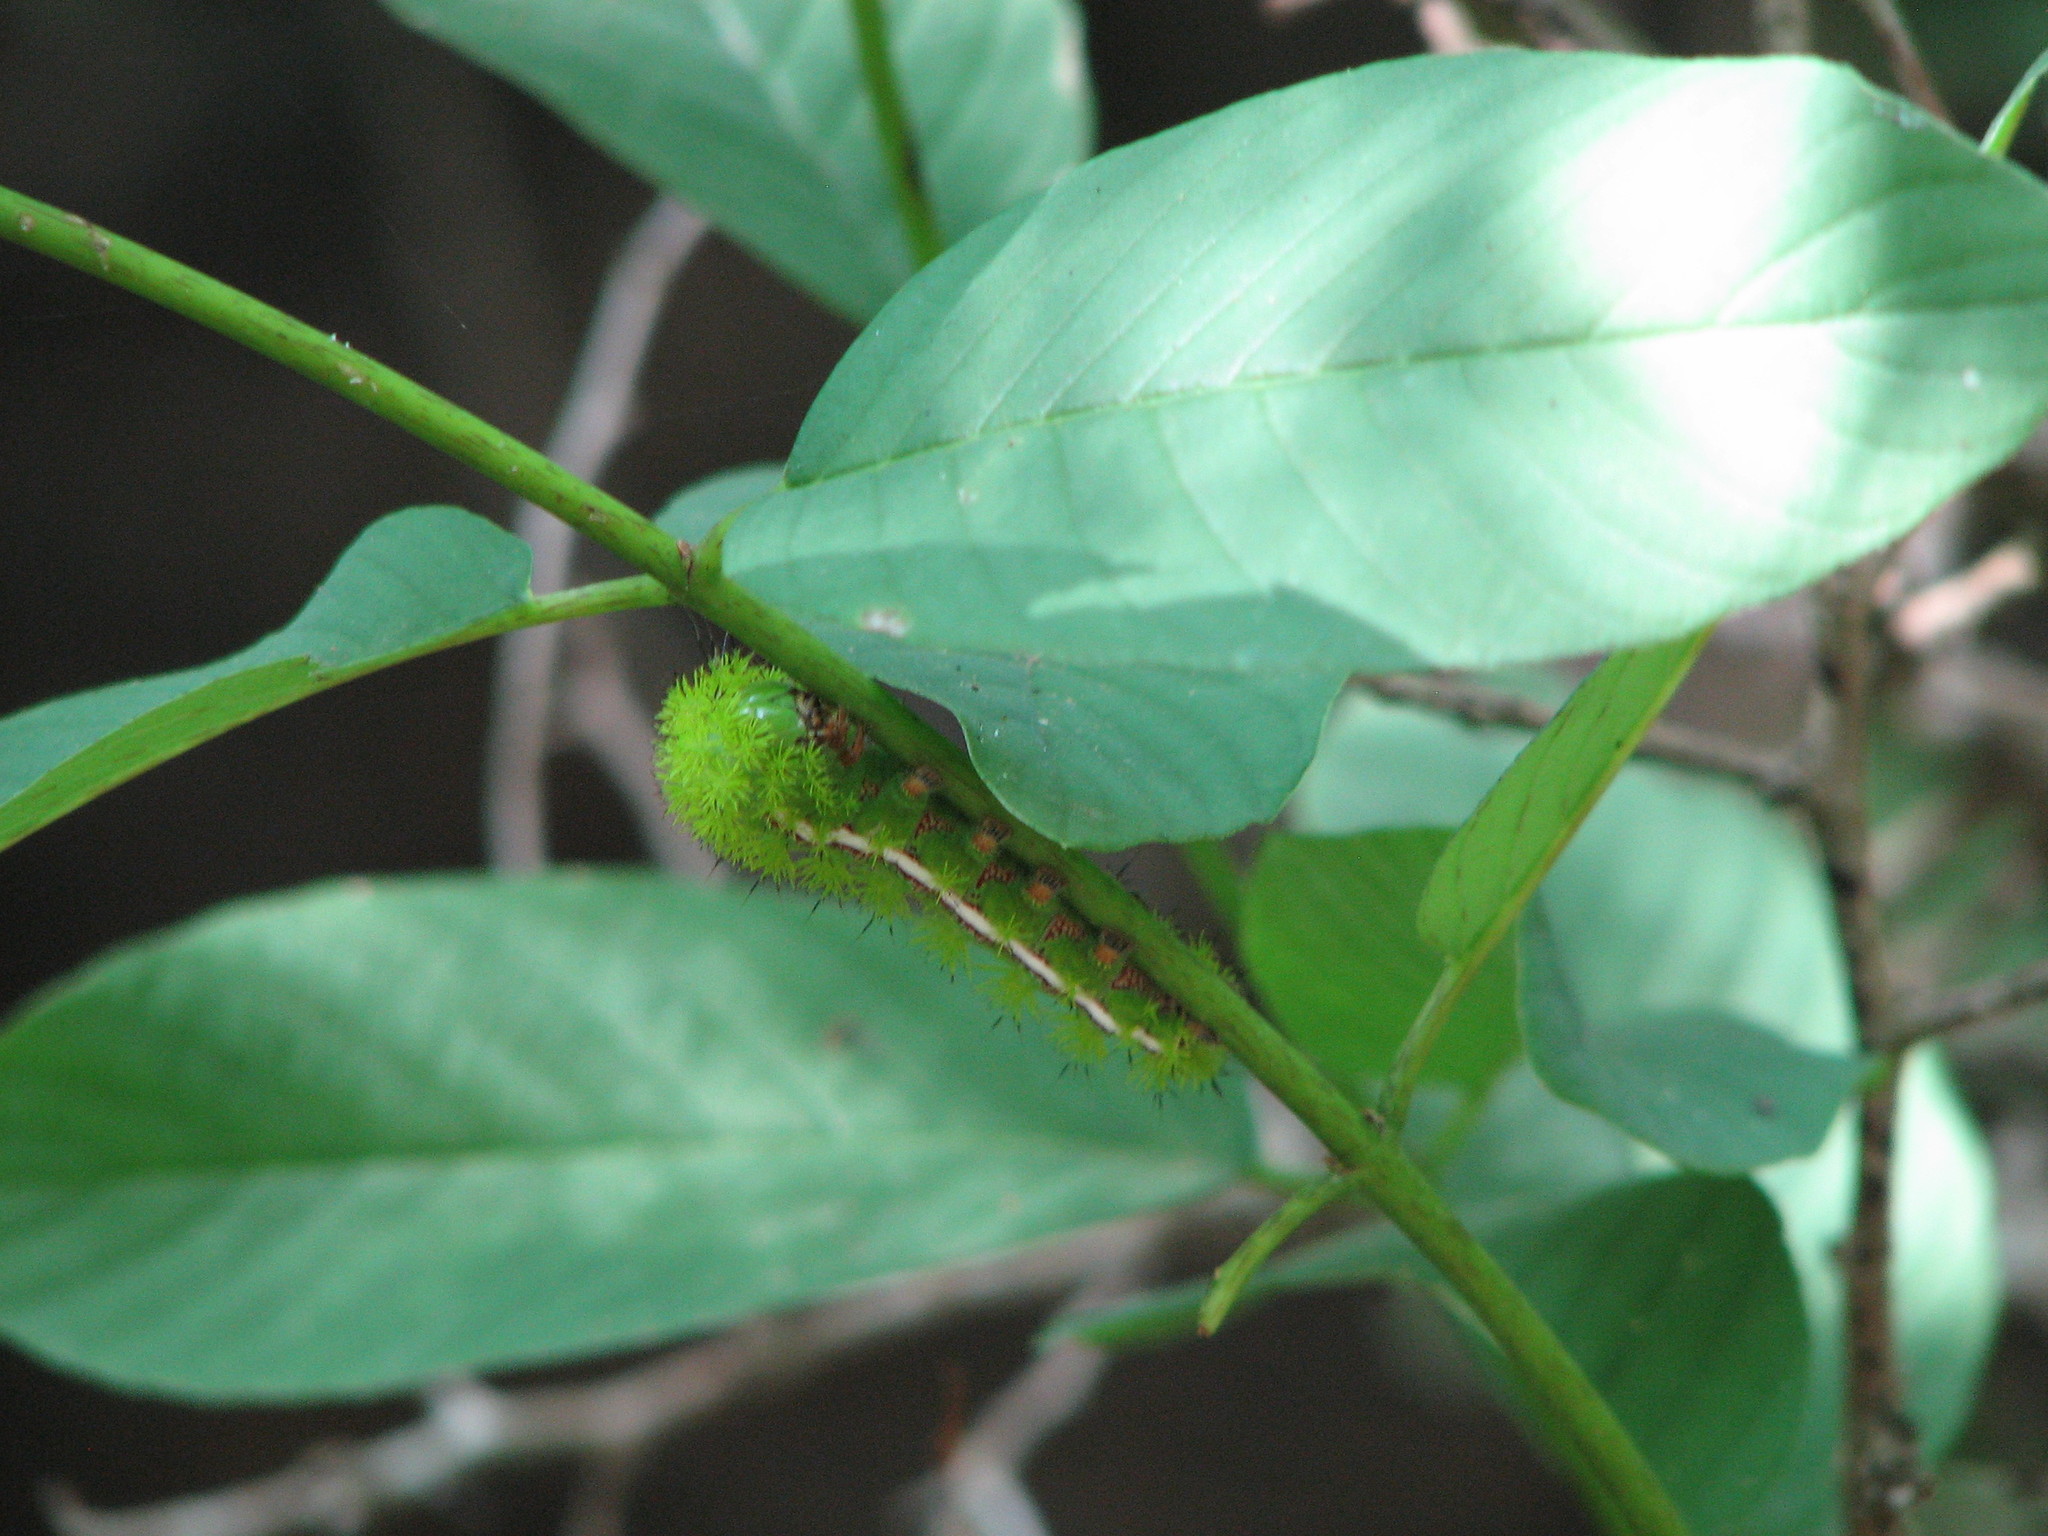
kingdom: Animalia
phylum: Arthropoda
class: Insecta
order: Lepidoptera
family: Saturniidae
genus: Automeris
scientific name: Automeris io
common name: Io moth
